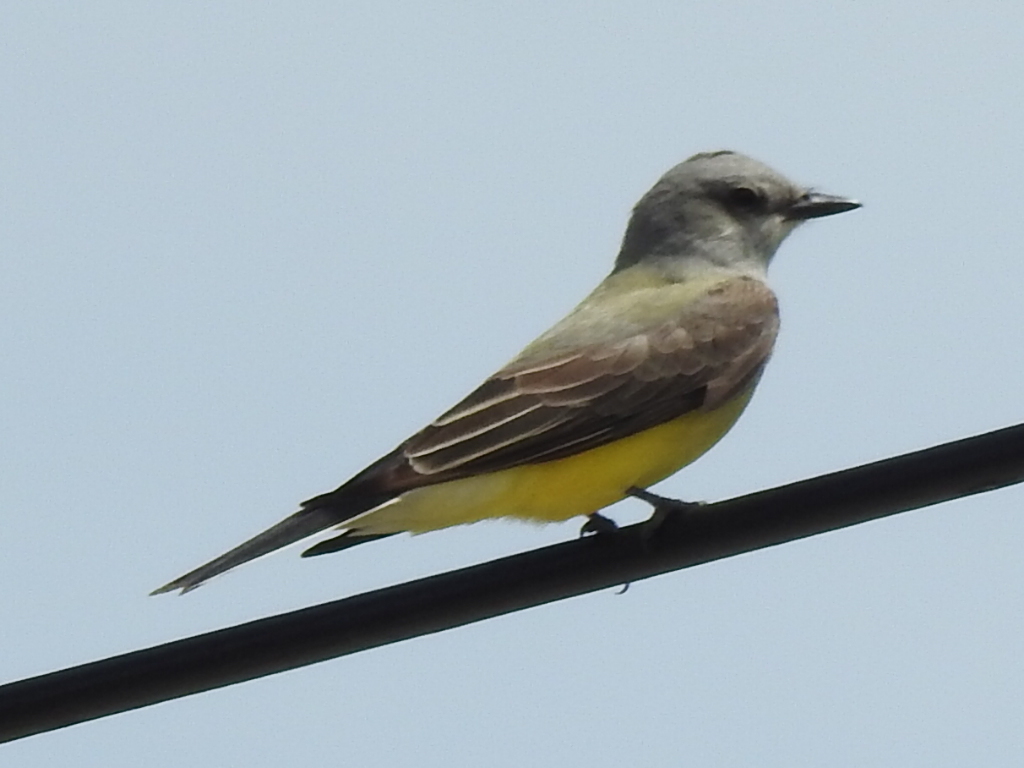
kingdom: Animalia
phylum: Chordata
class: Aves
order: Passeriformes
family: Tyrannidae
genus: Tyrannus
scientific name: Tyrannus verticalis
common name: Western kingbird
